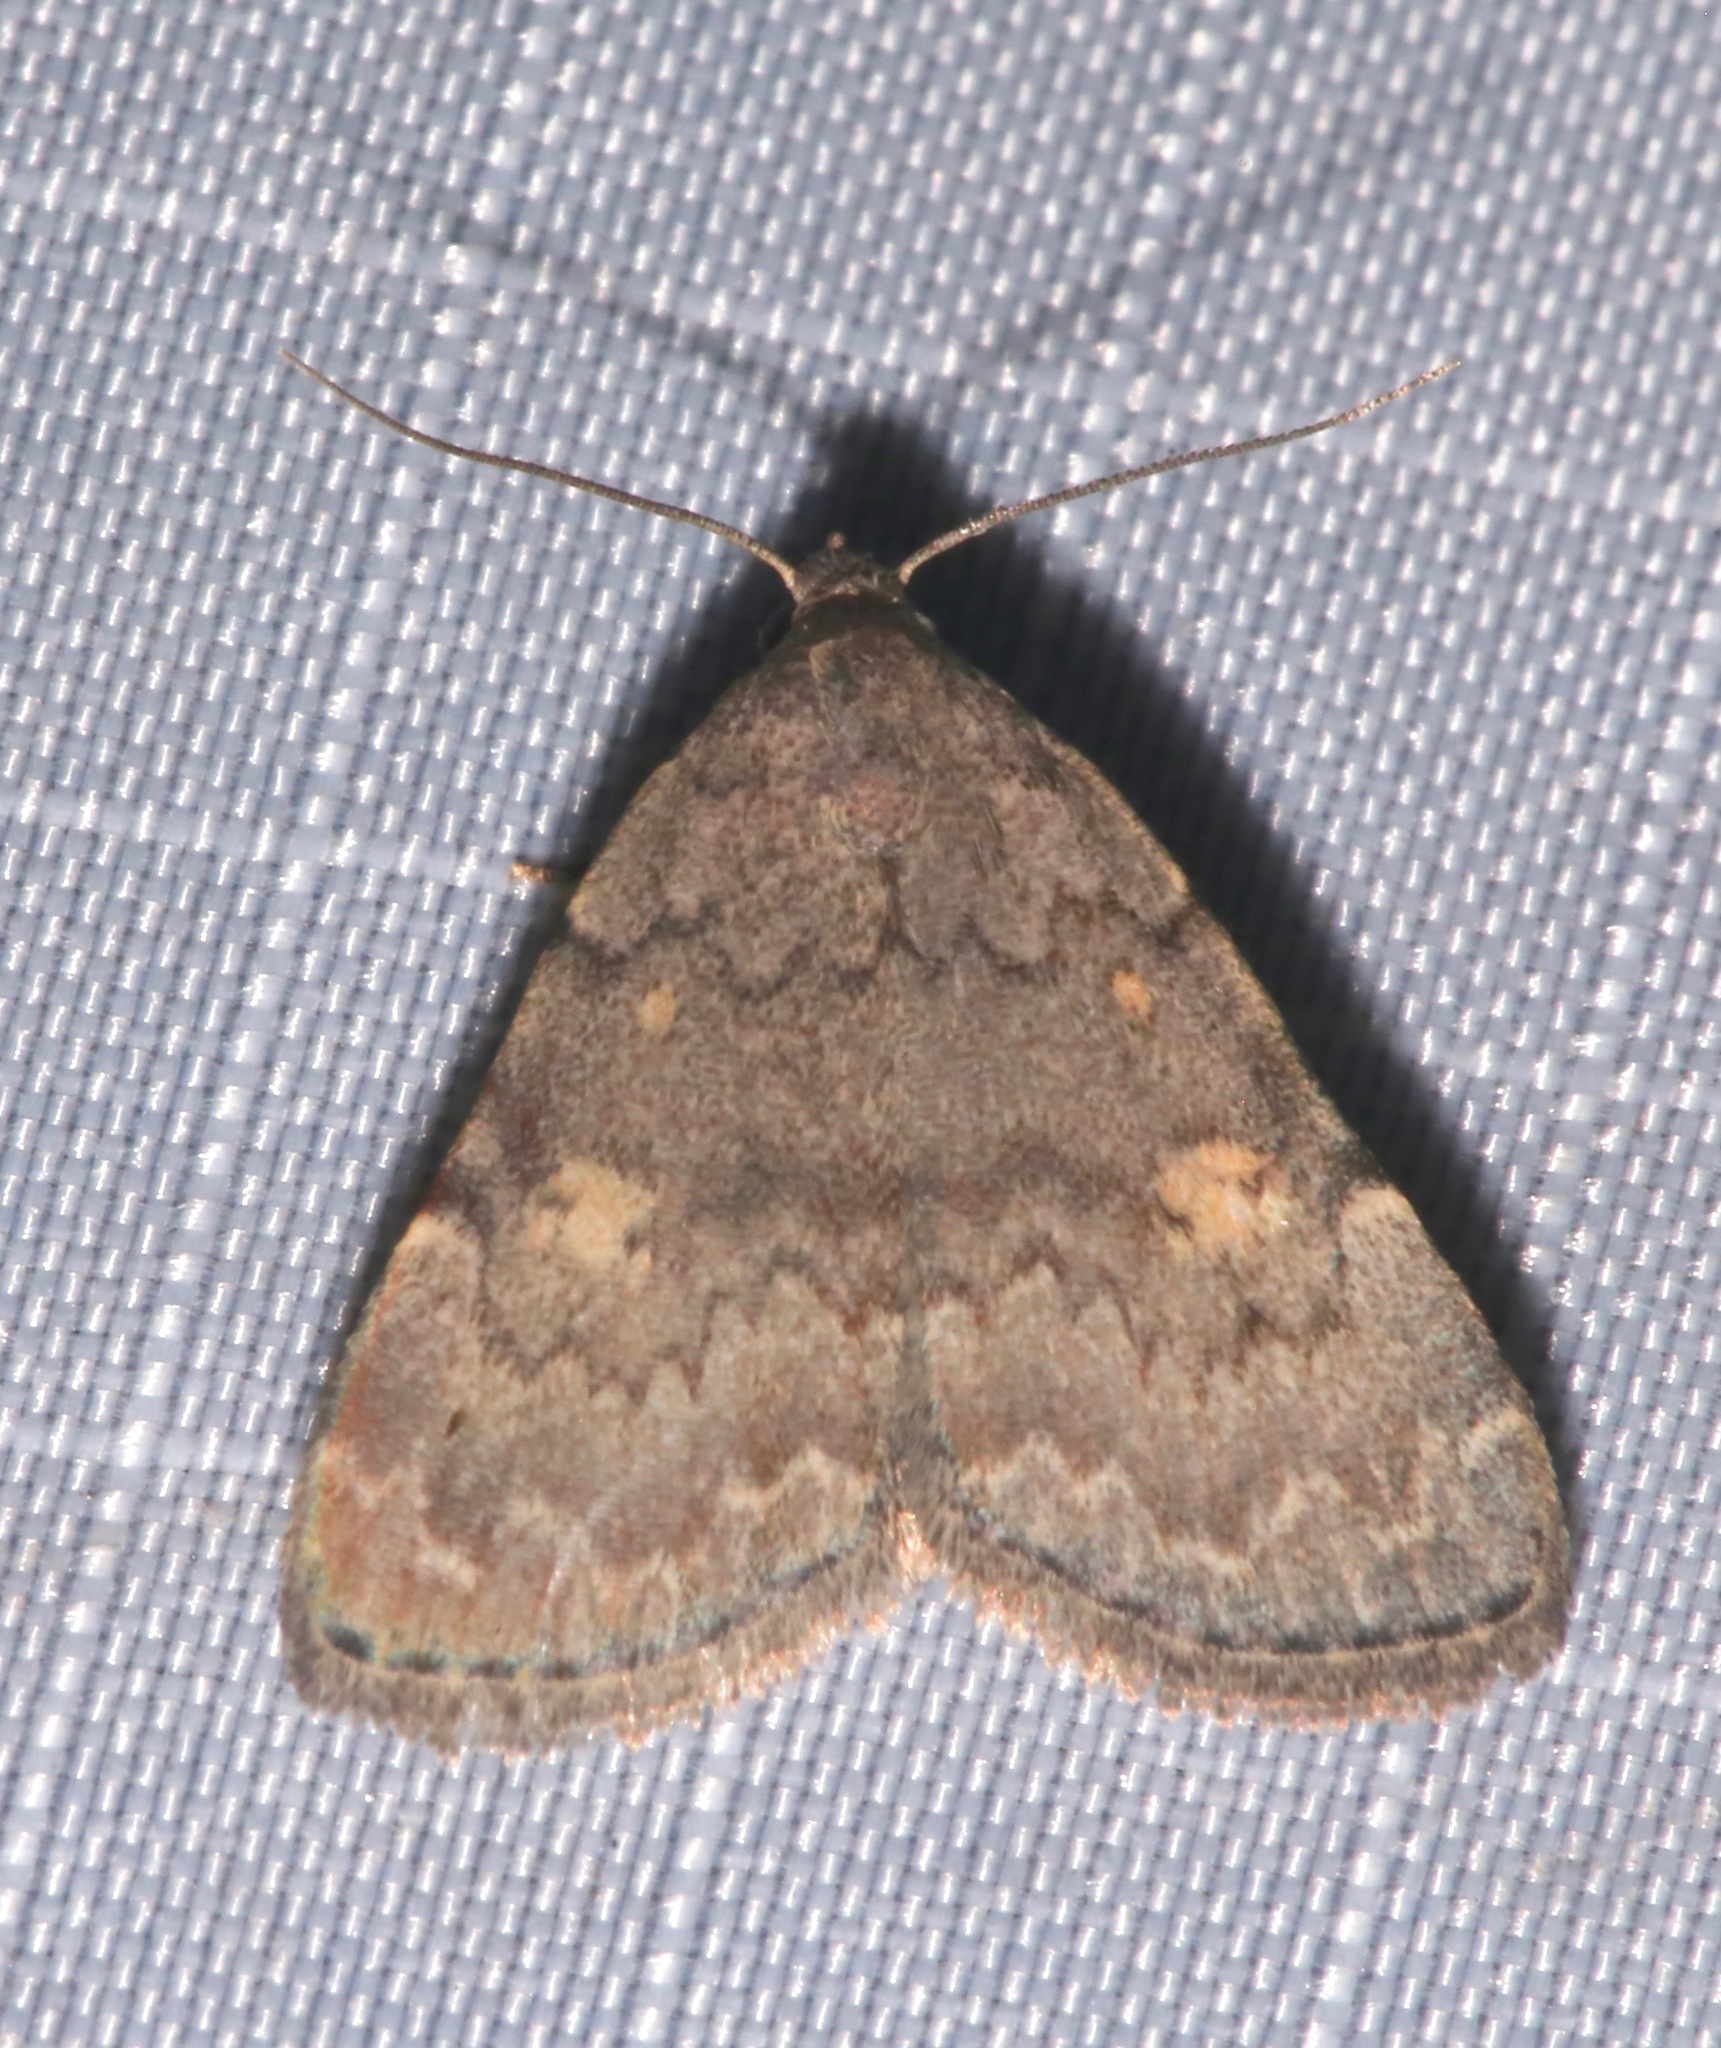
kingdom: Animalia
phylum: Arthropoda
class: Insecta
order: Lepidoptera
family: Erebidae
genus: Idia
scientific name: Idia aemula
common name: Common idia moth
